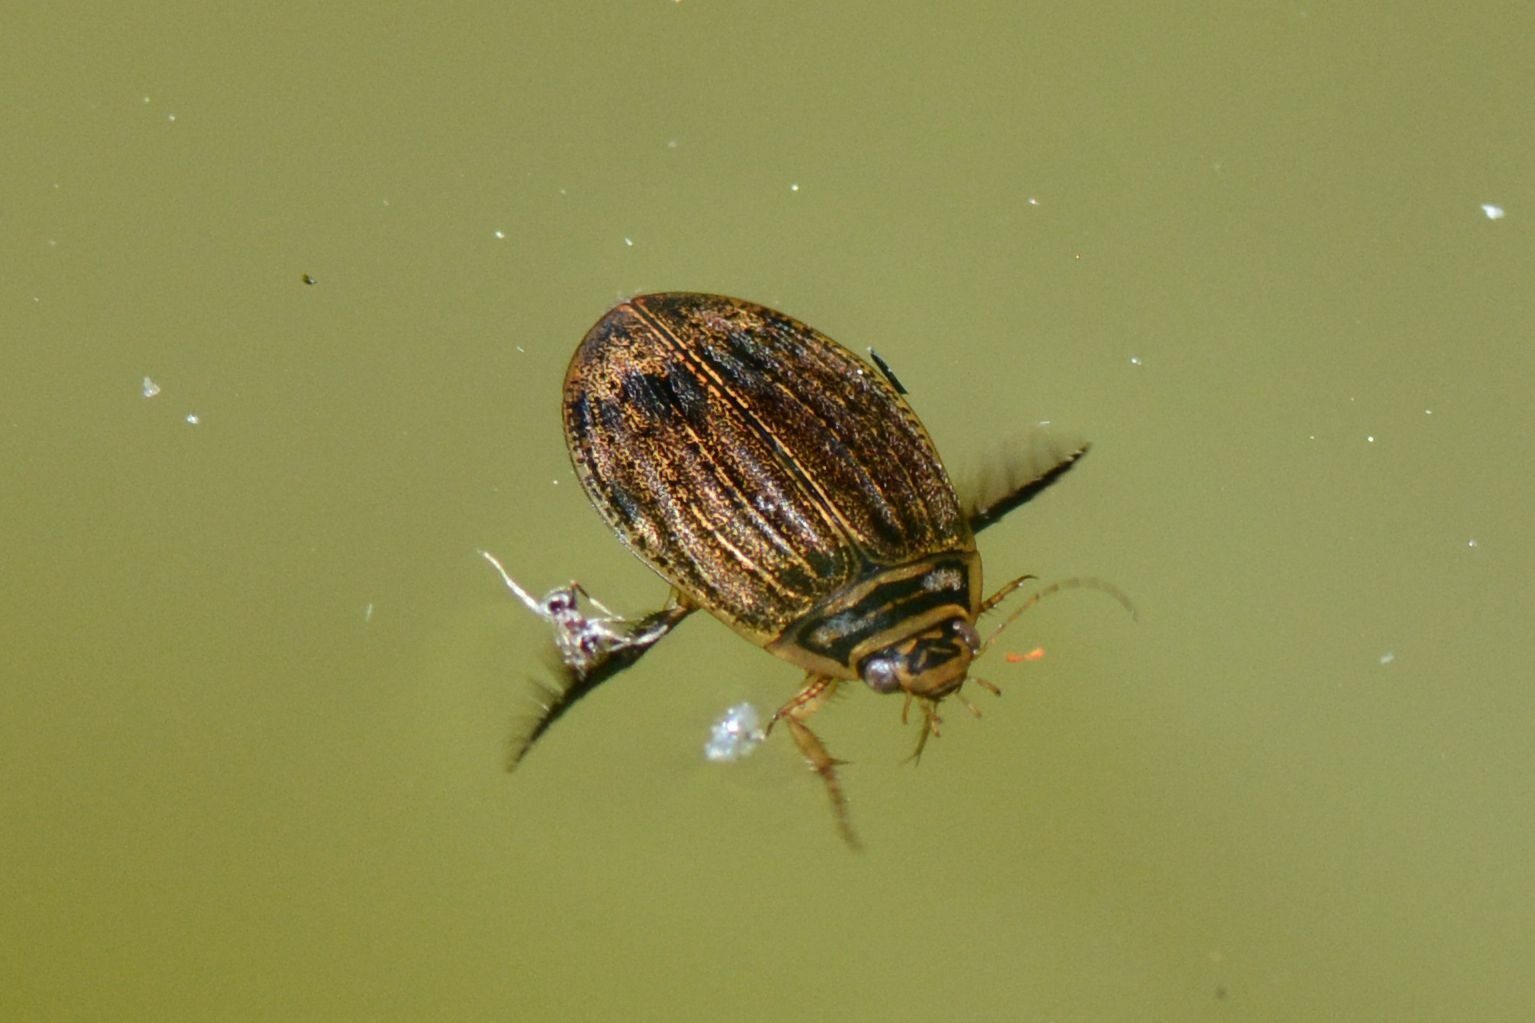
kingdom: Animalia
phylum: Arthropoda
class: Insecta
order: Coleoptera
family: Dytiscidae
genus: Acilius
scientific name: Acilius sulcatus
